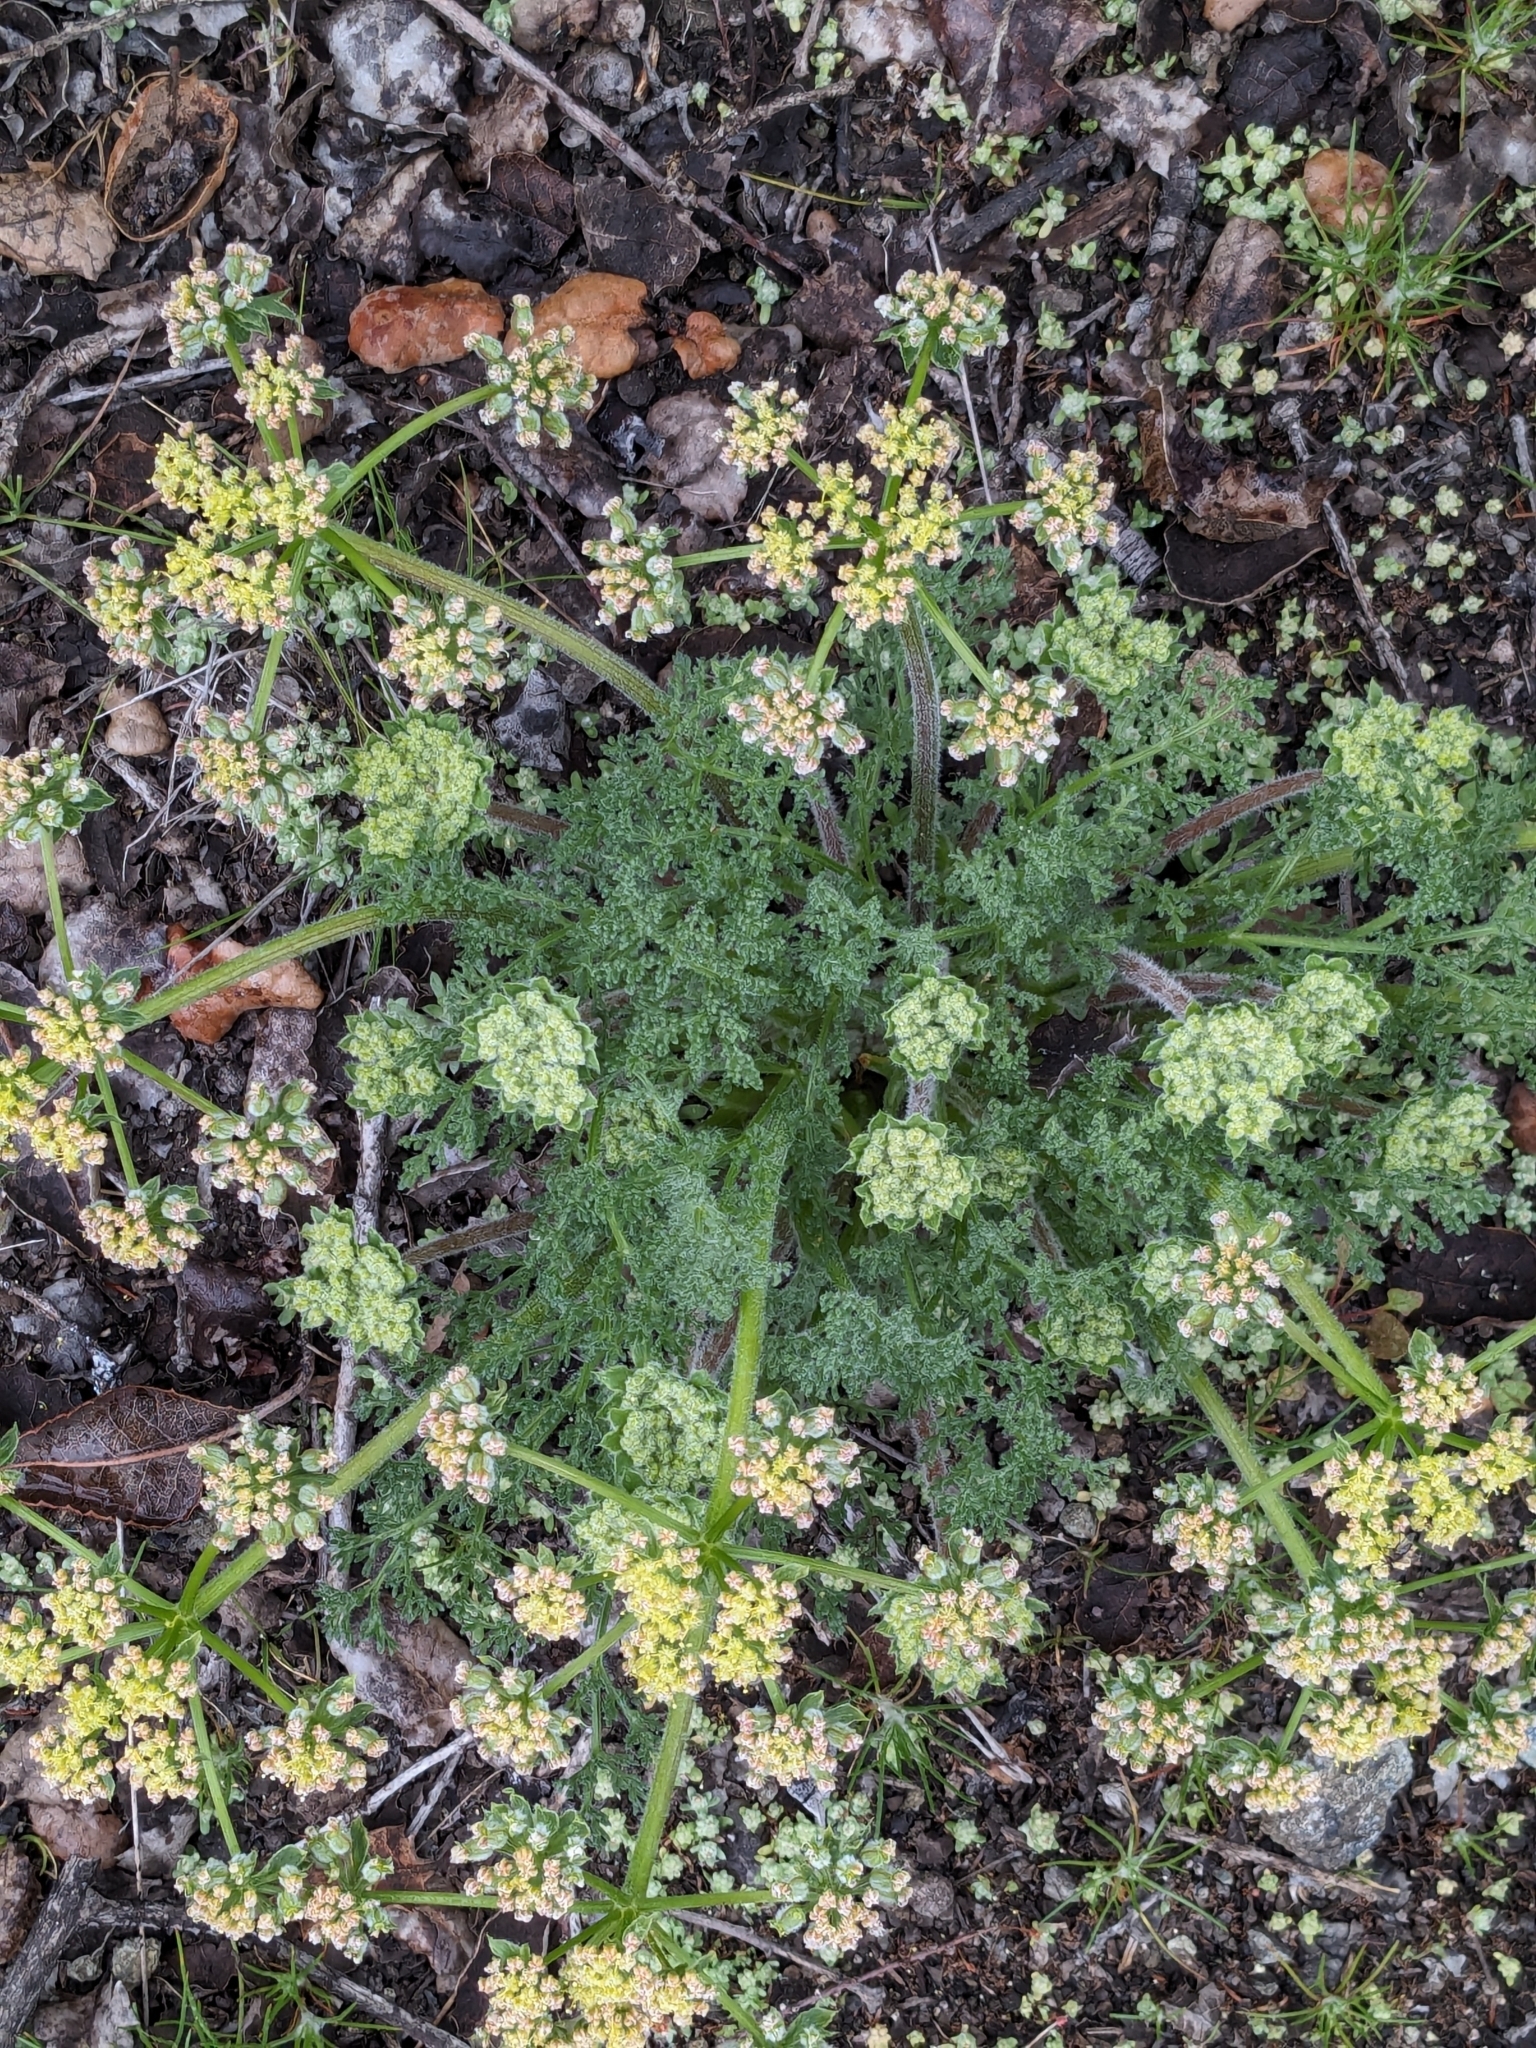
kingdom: Plantae
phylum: Tracheophyta
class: Magnoliopsida
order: Apiales
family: Apiaceae
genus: Lomatium
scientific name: Lomatium dasycarpum
